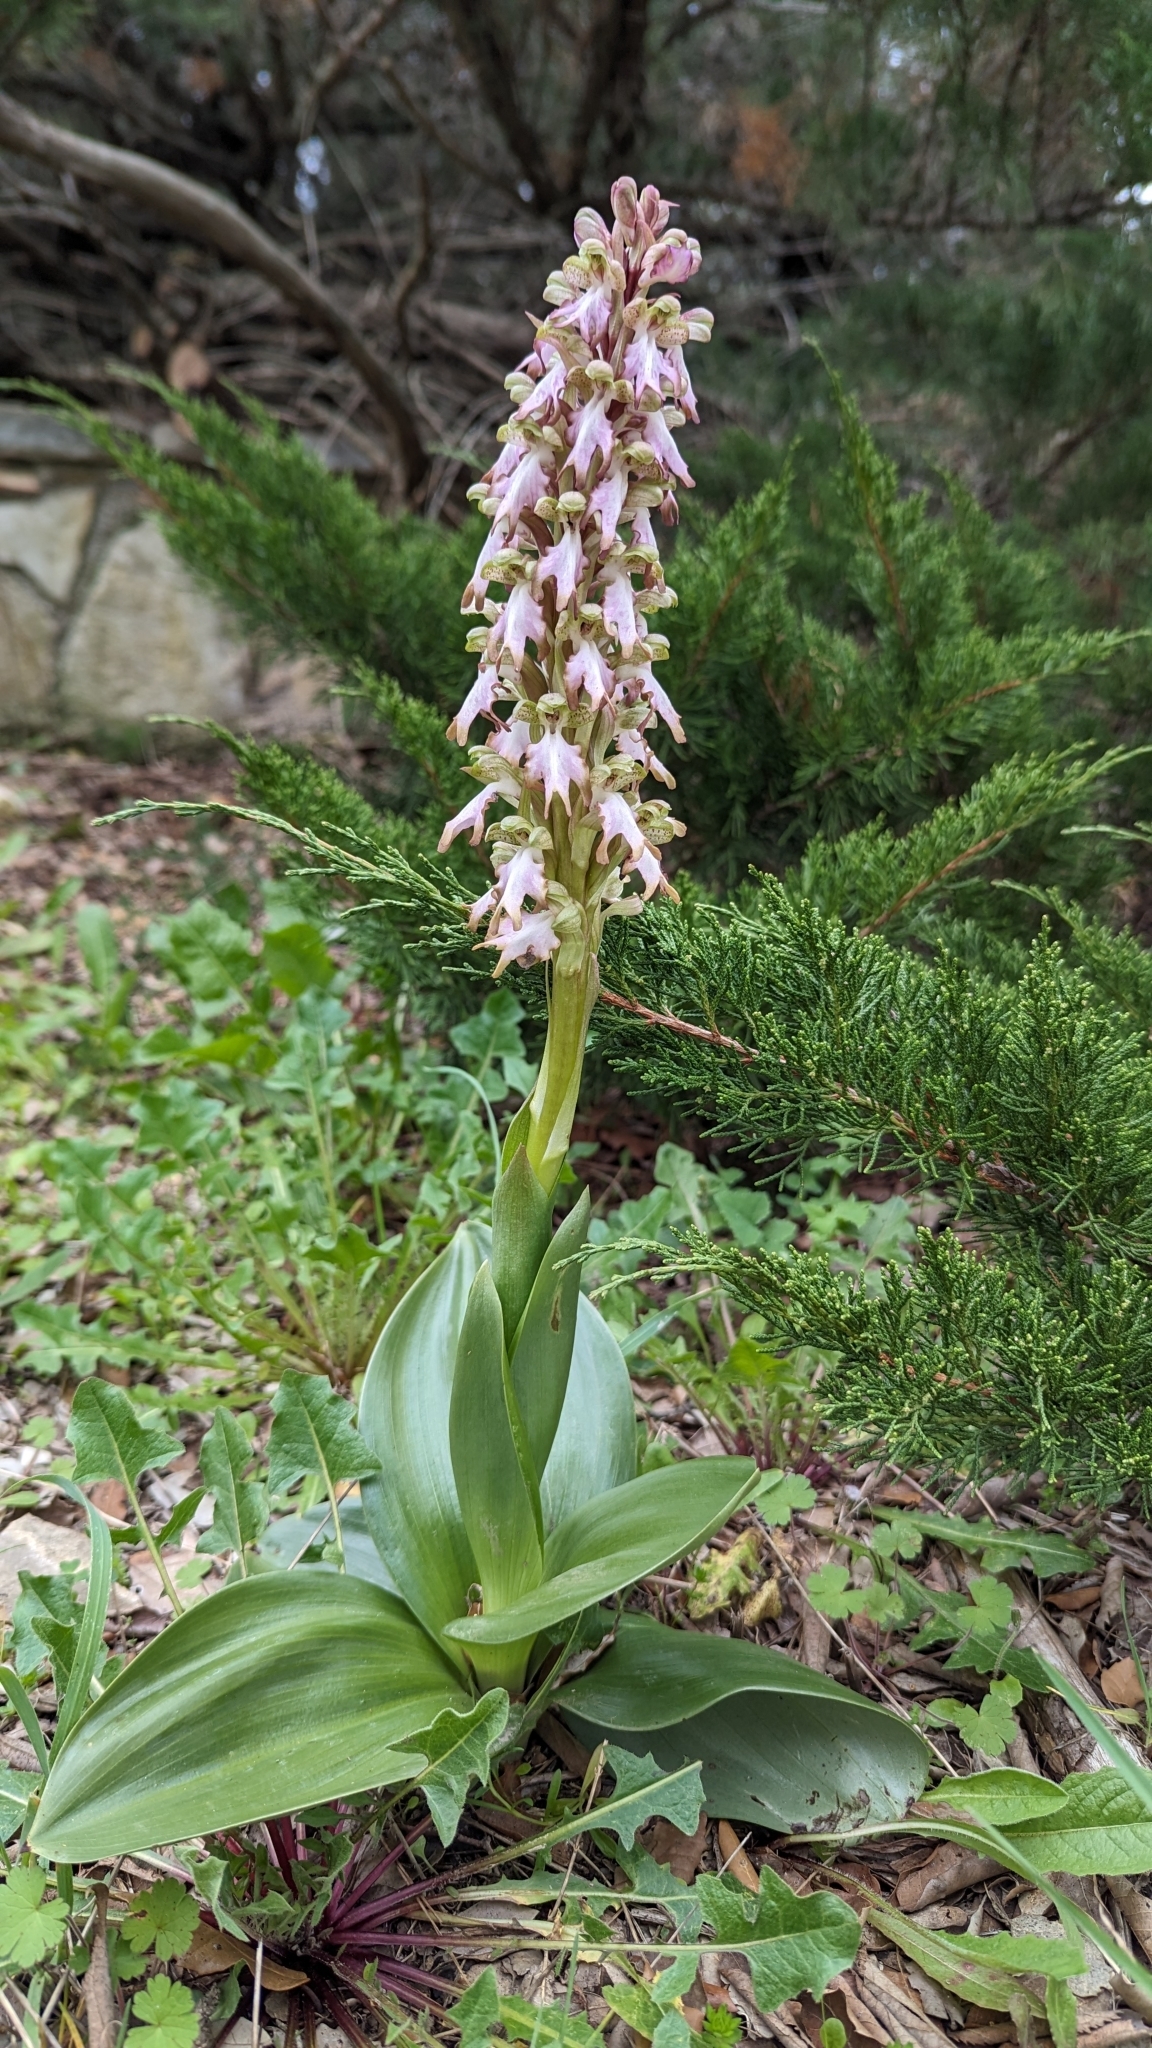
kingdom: Plantae
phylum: Tracheophyta
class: Liliopsida
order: Asparagales
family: Orchidaceae
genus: Himantoglossum
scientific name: Himantoglossum robertianum
